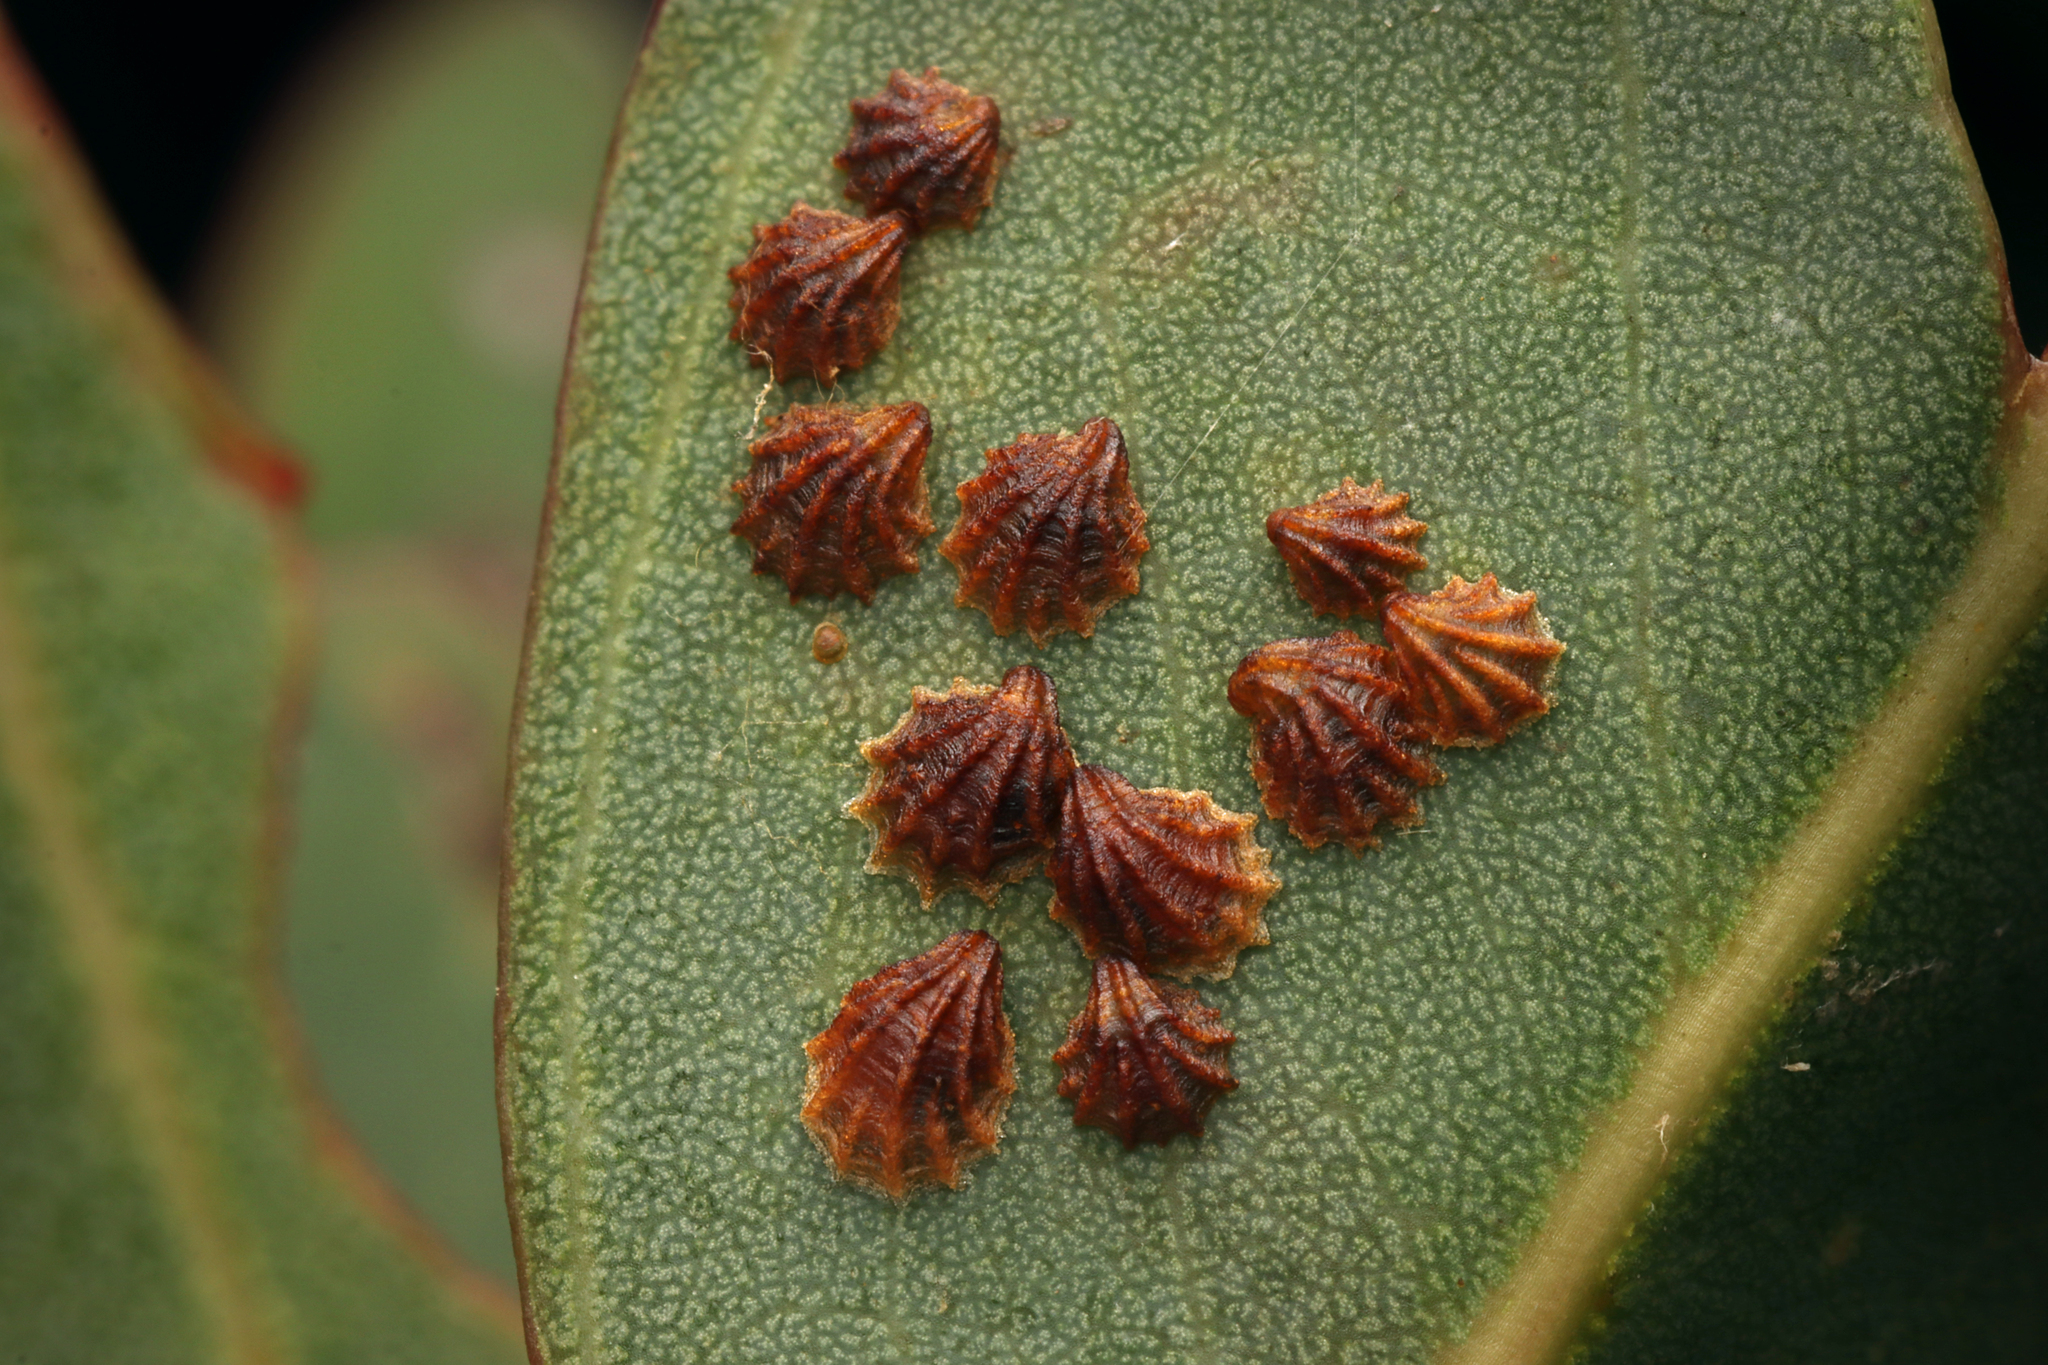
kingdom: Animalia
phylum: Arthropoda
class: Insecta
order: Hemiptera
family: Aphalaridae
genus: Spondyliaspis
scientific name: Spondyliaspis plicatuloides
